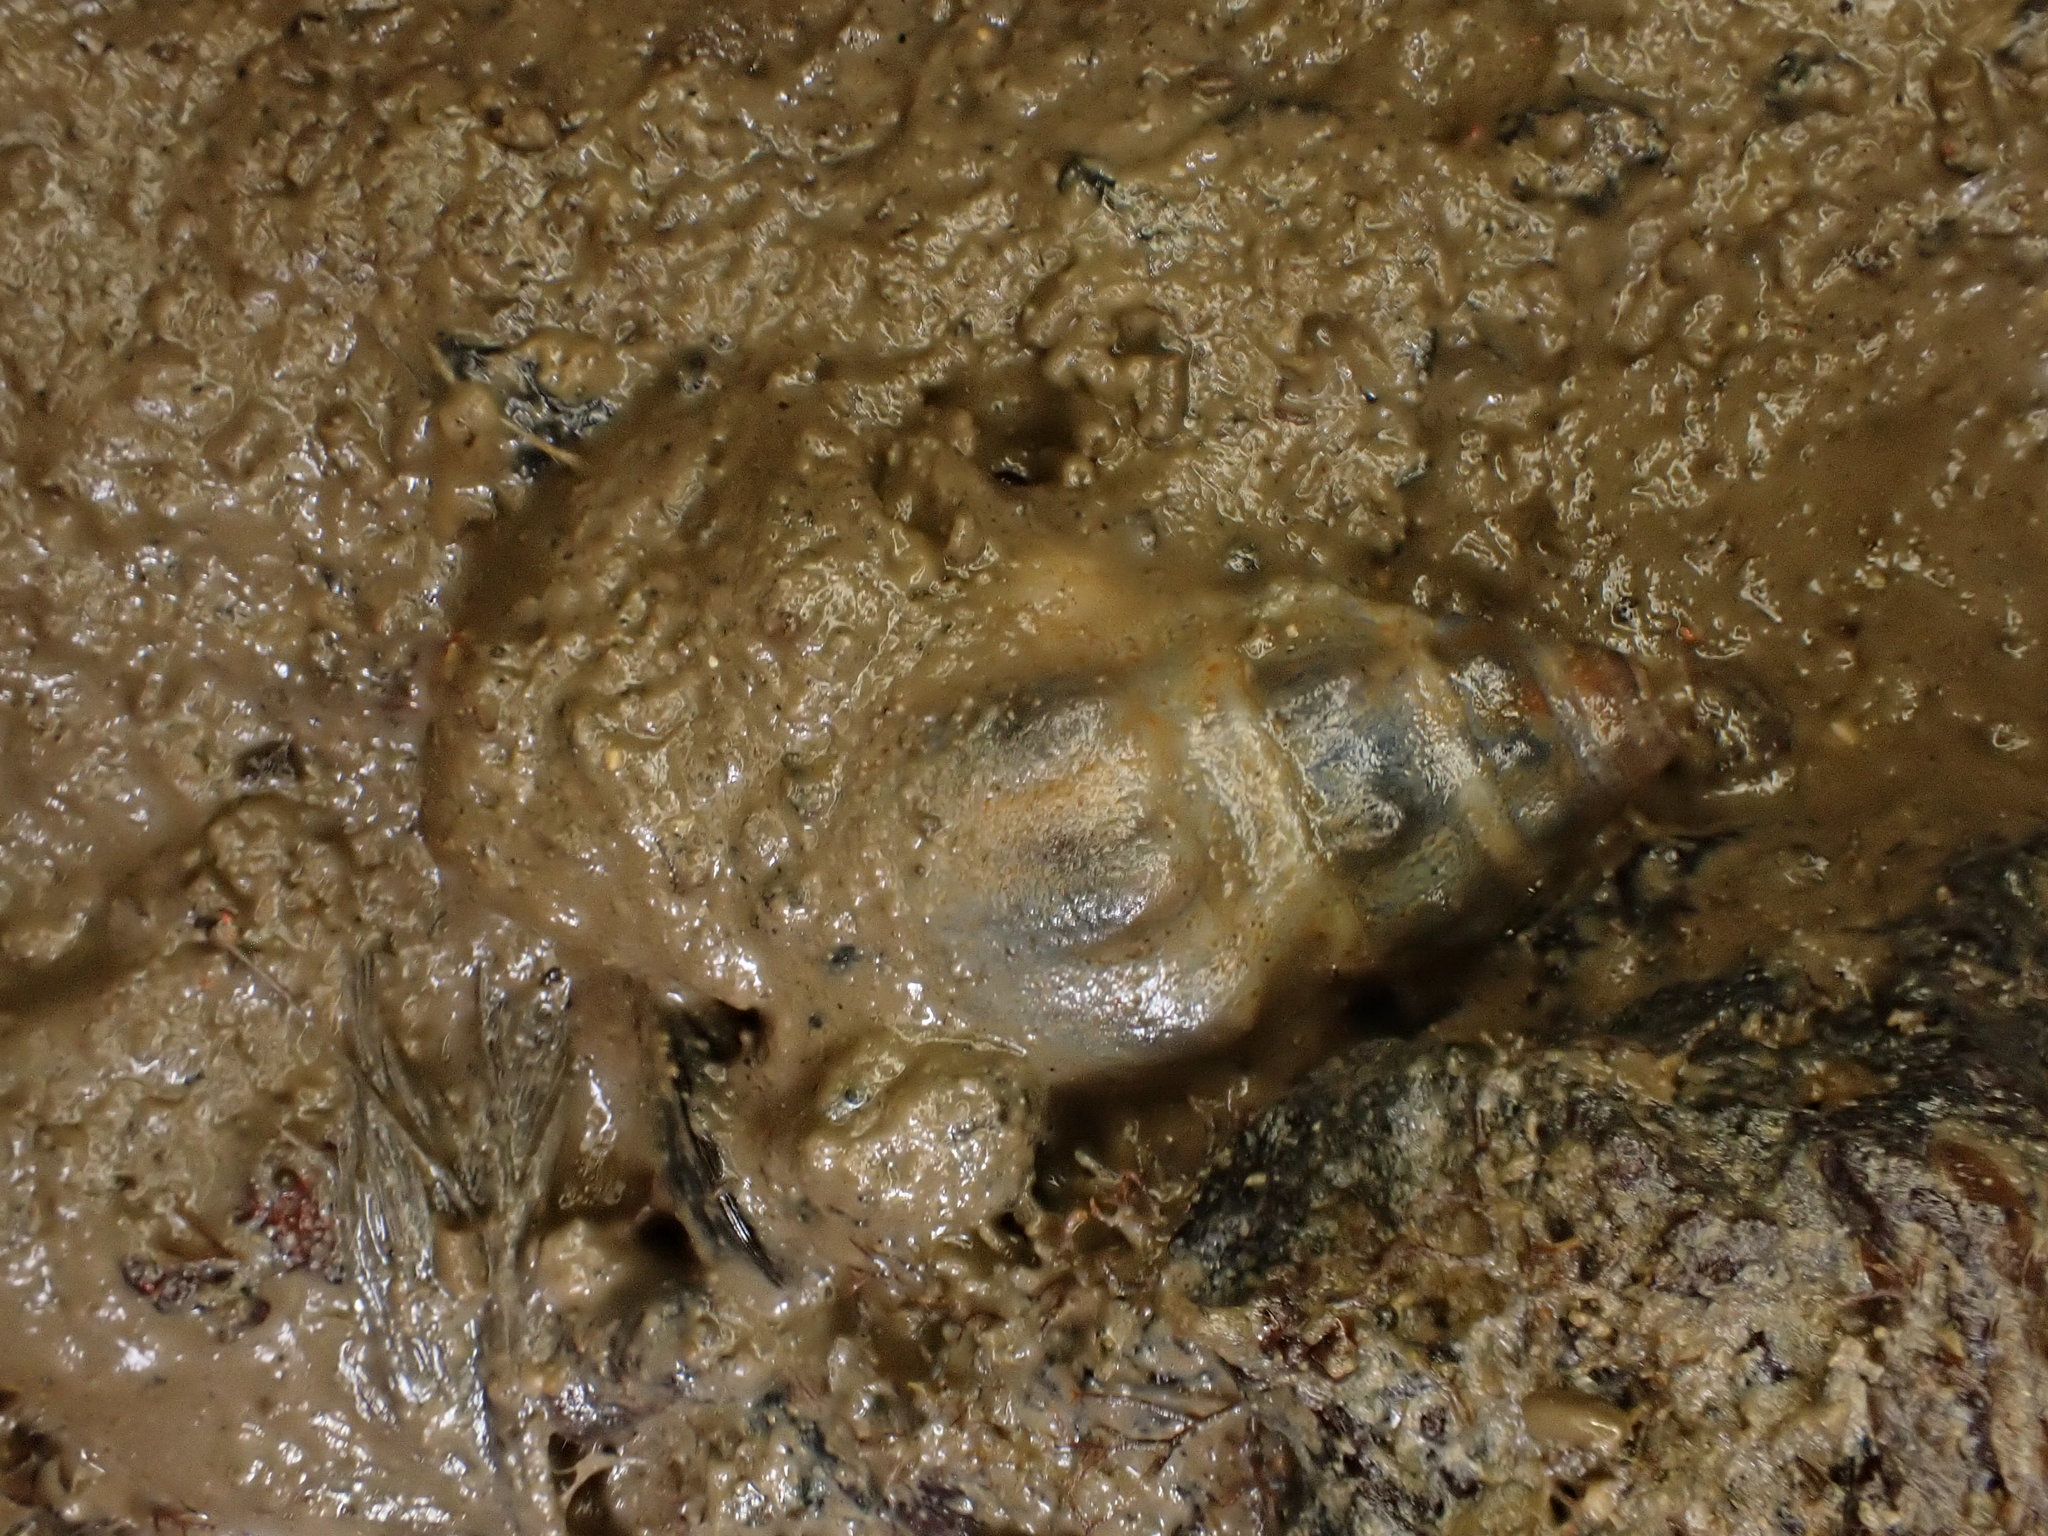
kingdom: Animalia
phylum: Mollusca
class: Gastropoda
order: Neogastropoda
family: Cominellidae
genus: Cominella
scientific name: Cominella glandiformis
